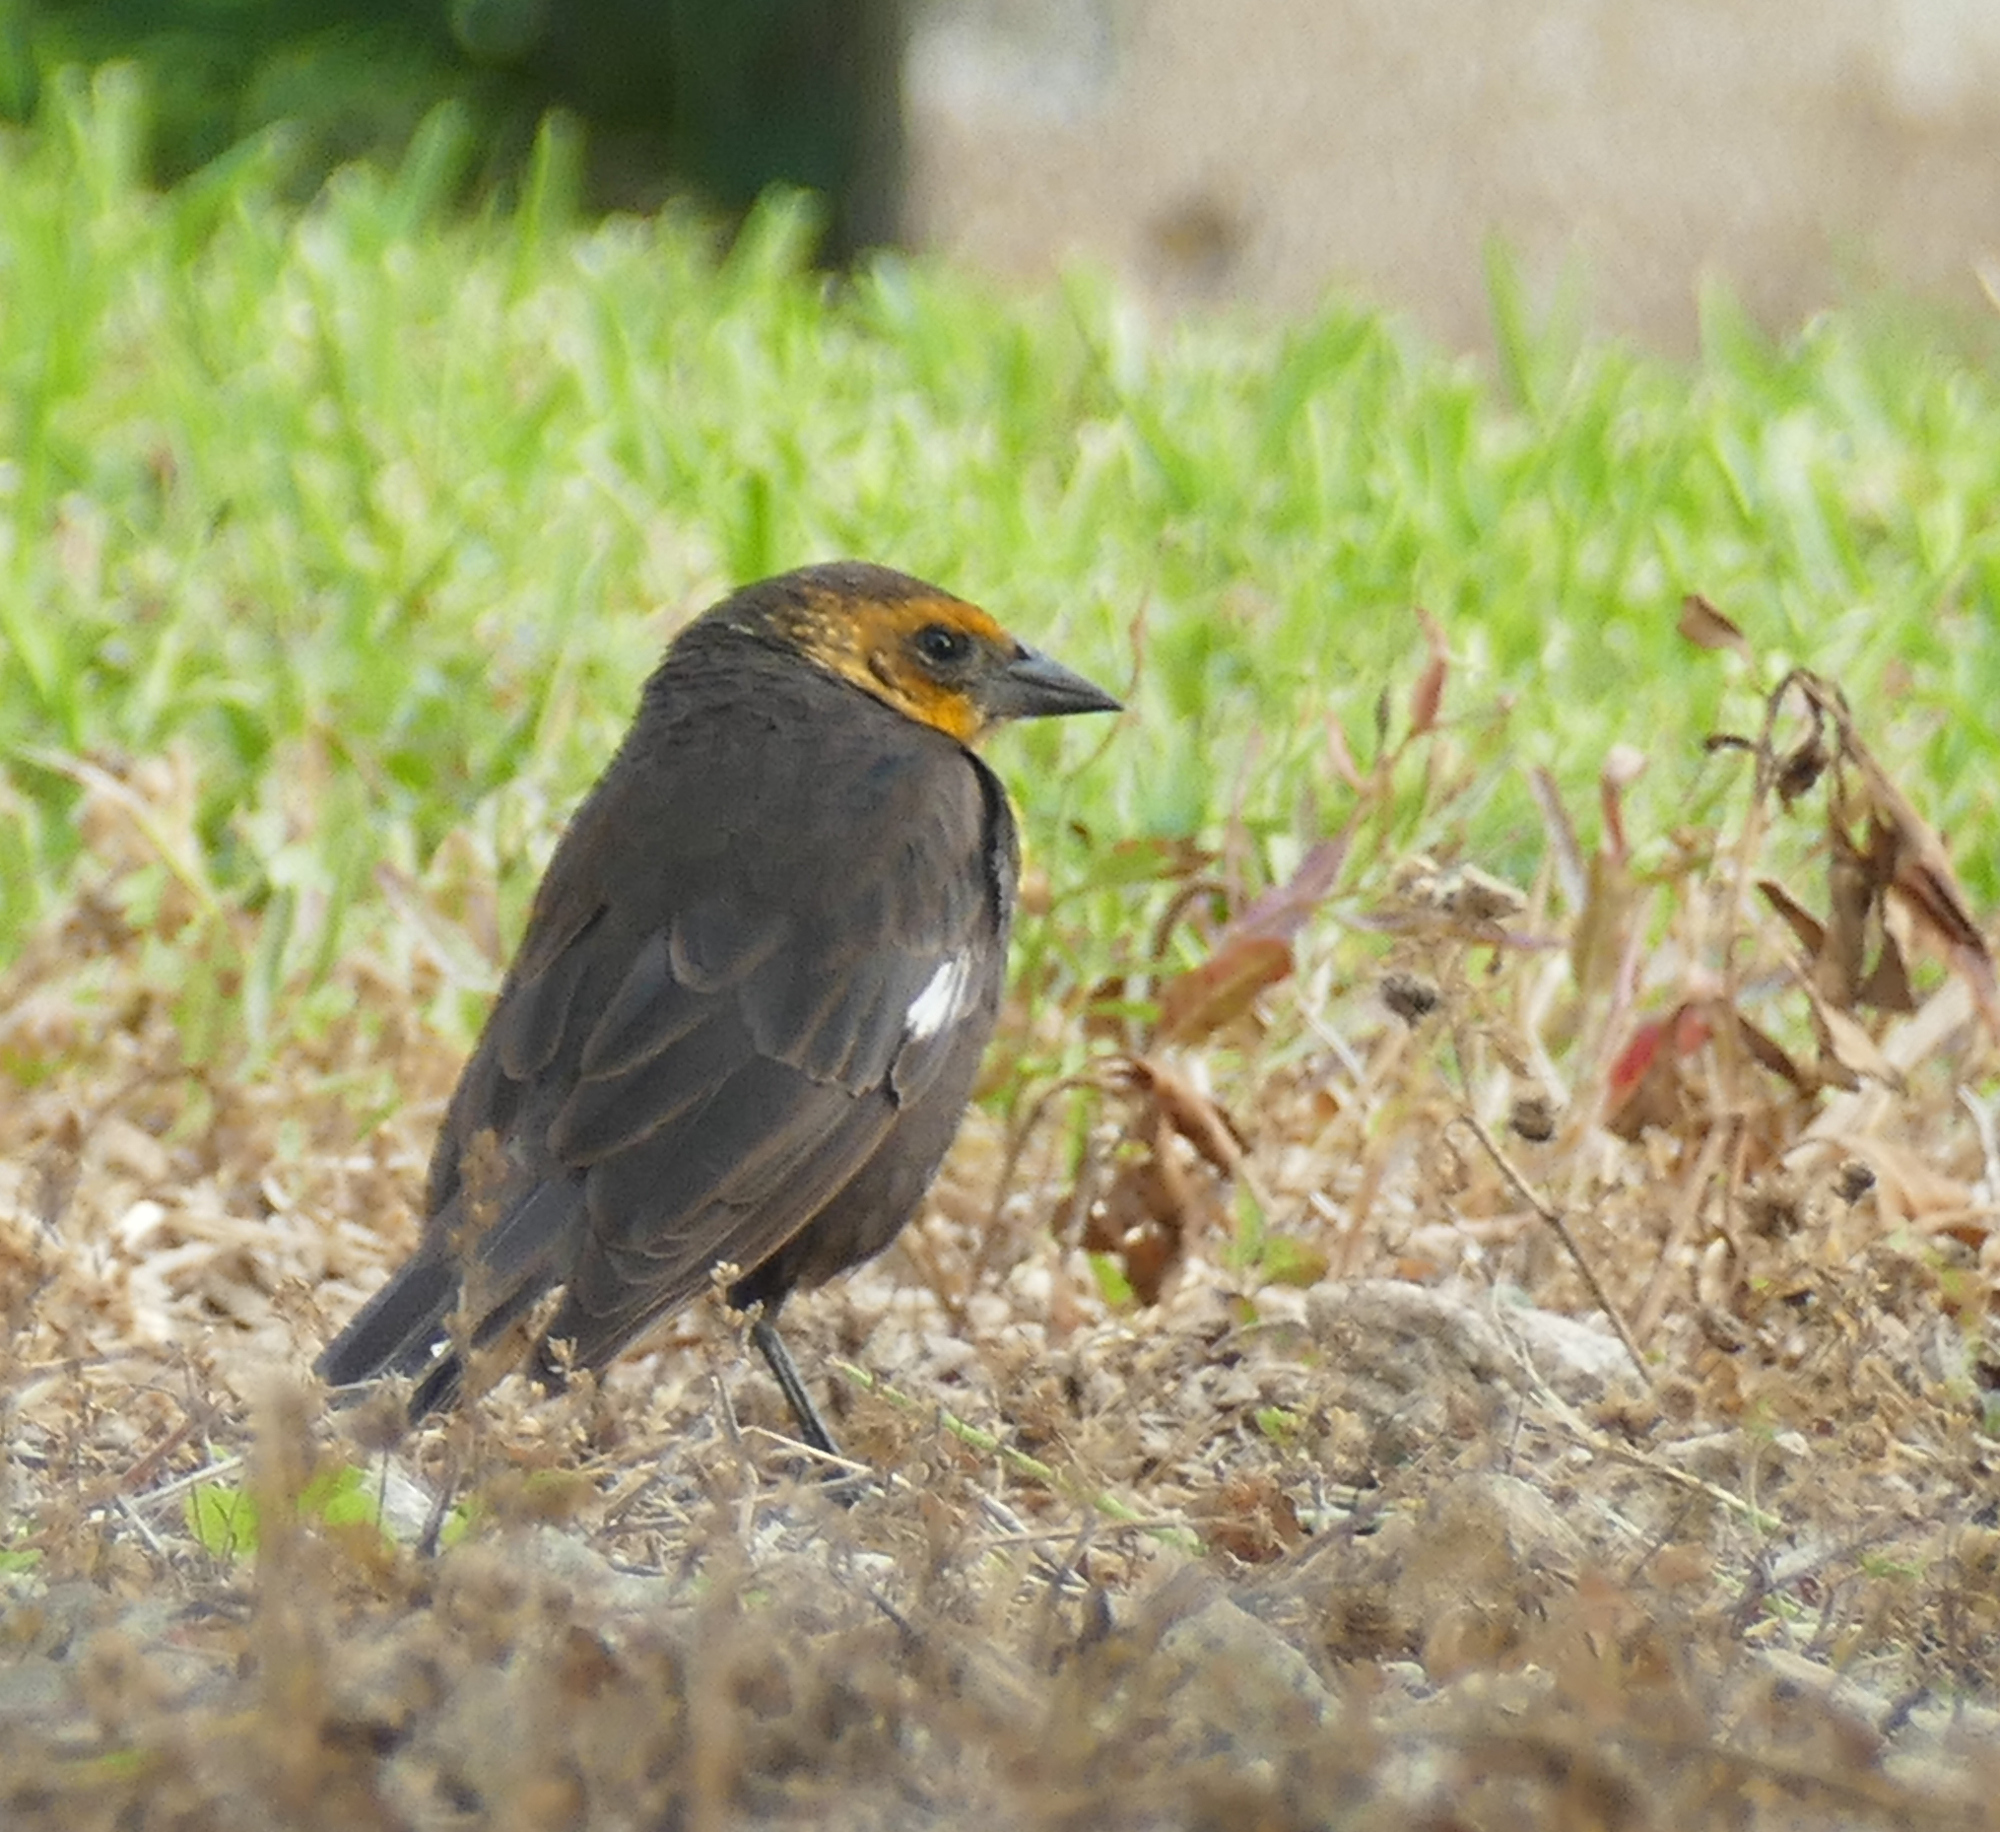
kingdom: Animalia
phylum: Chordata
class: Aves
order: Passeriformes
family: Icteridae
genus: Xanthocephalus
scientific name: Xanthocephalus xanthocephalus
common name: Yellow-headed blackbird
